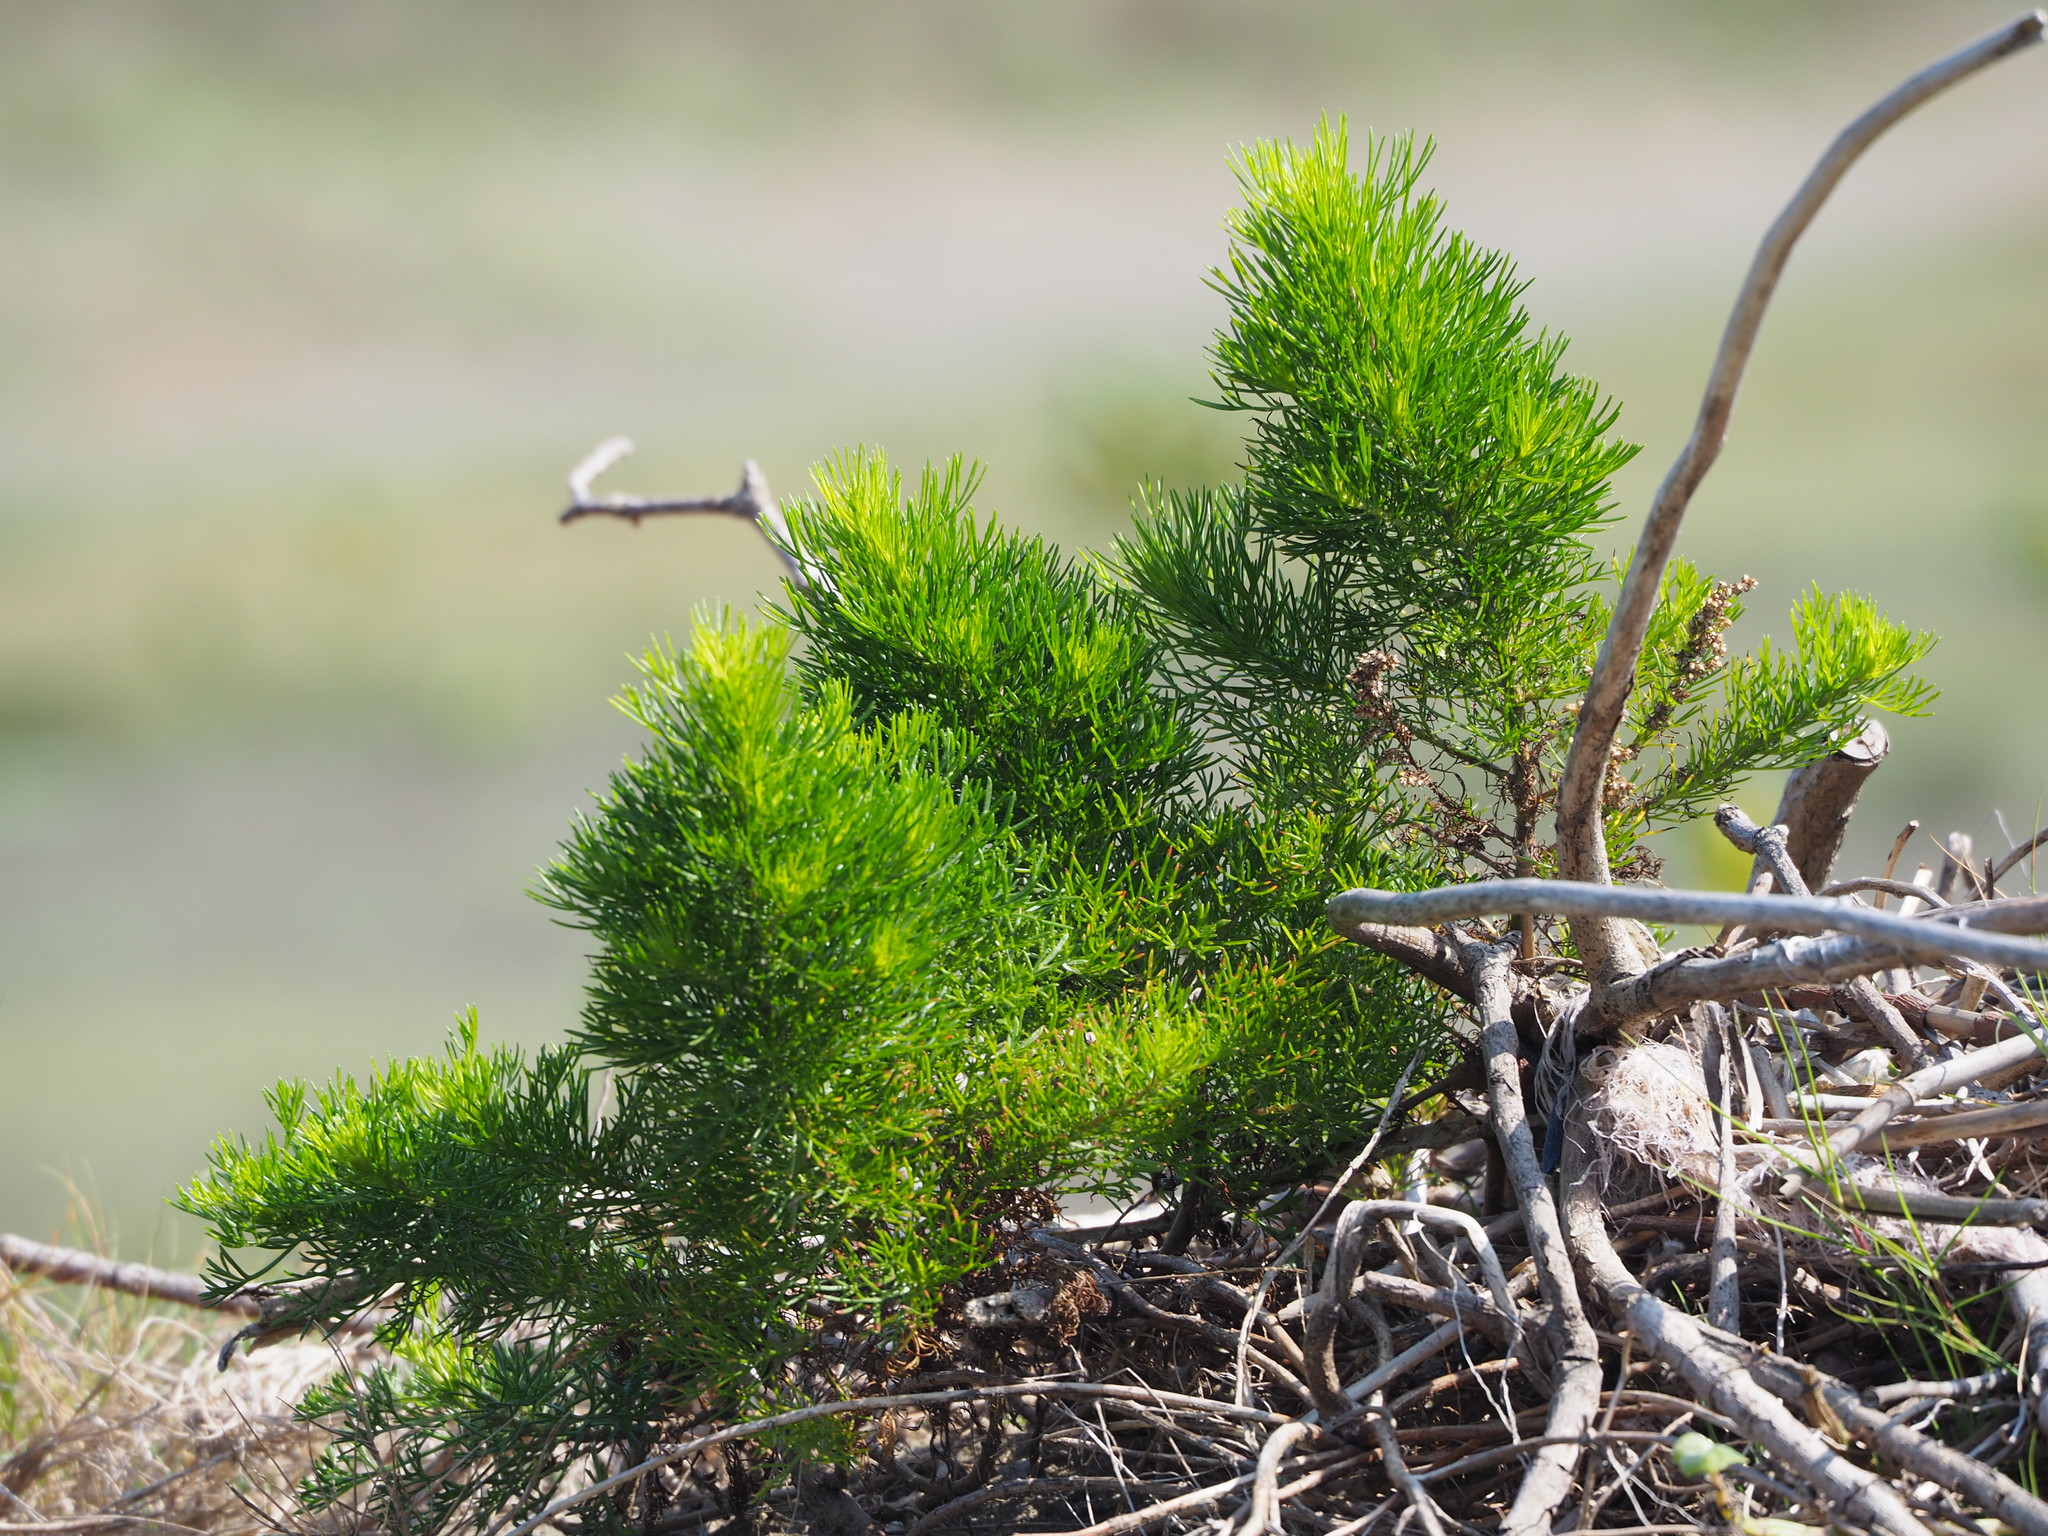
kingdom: Plantae
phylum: Tracheophyta
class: Magnoliopsida
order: Asterales
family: Asteraceae
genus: Artemisia
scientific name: Artemisia capillaris
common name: Yin-chen wormwood
